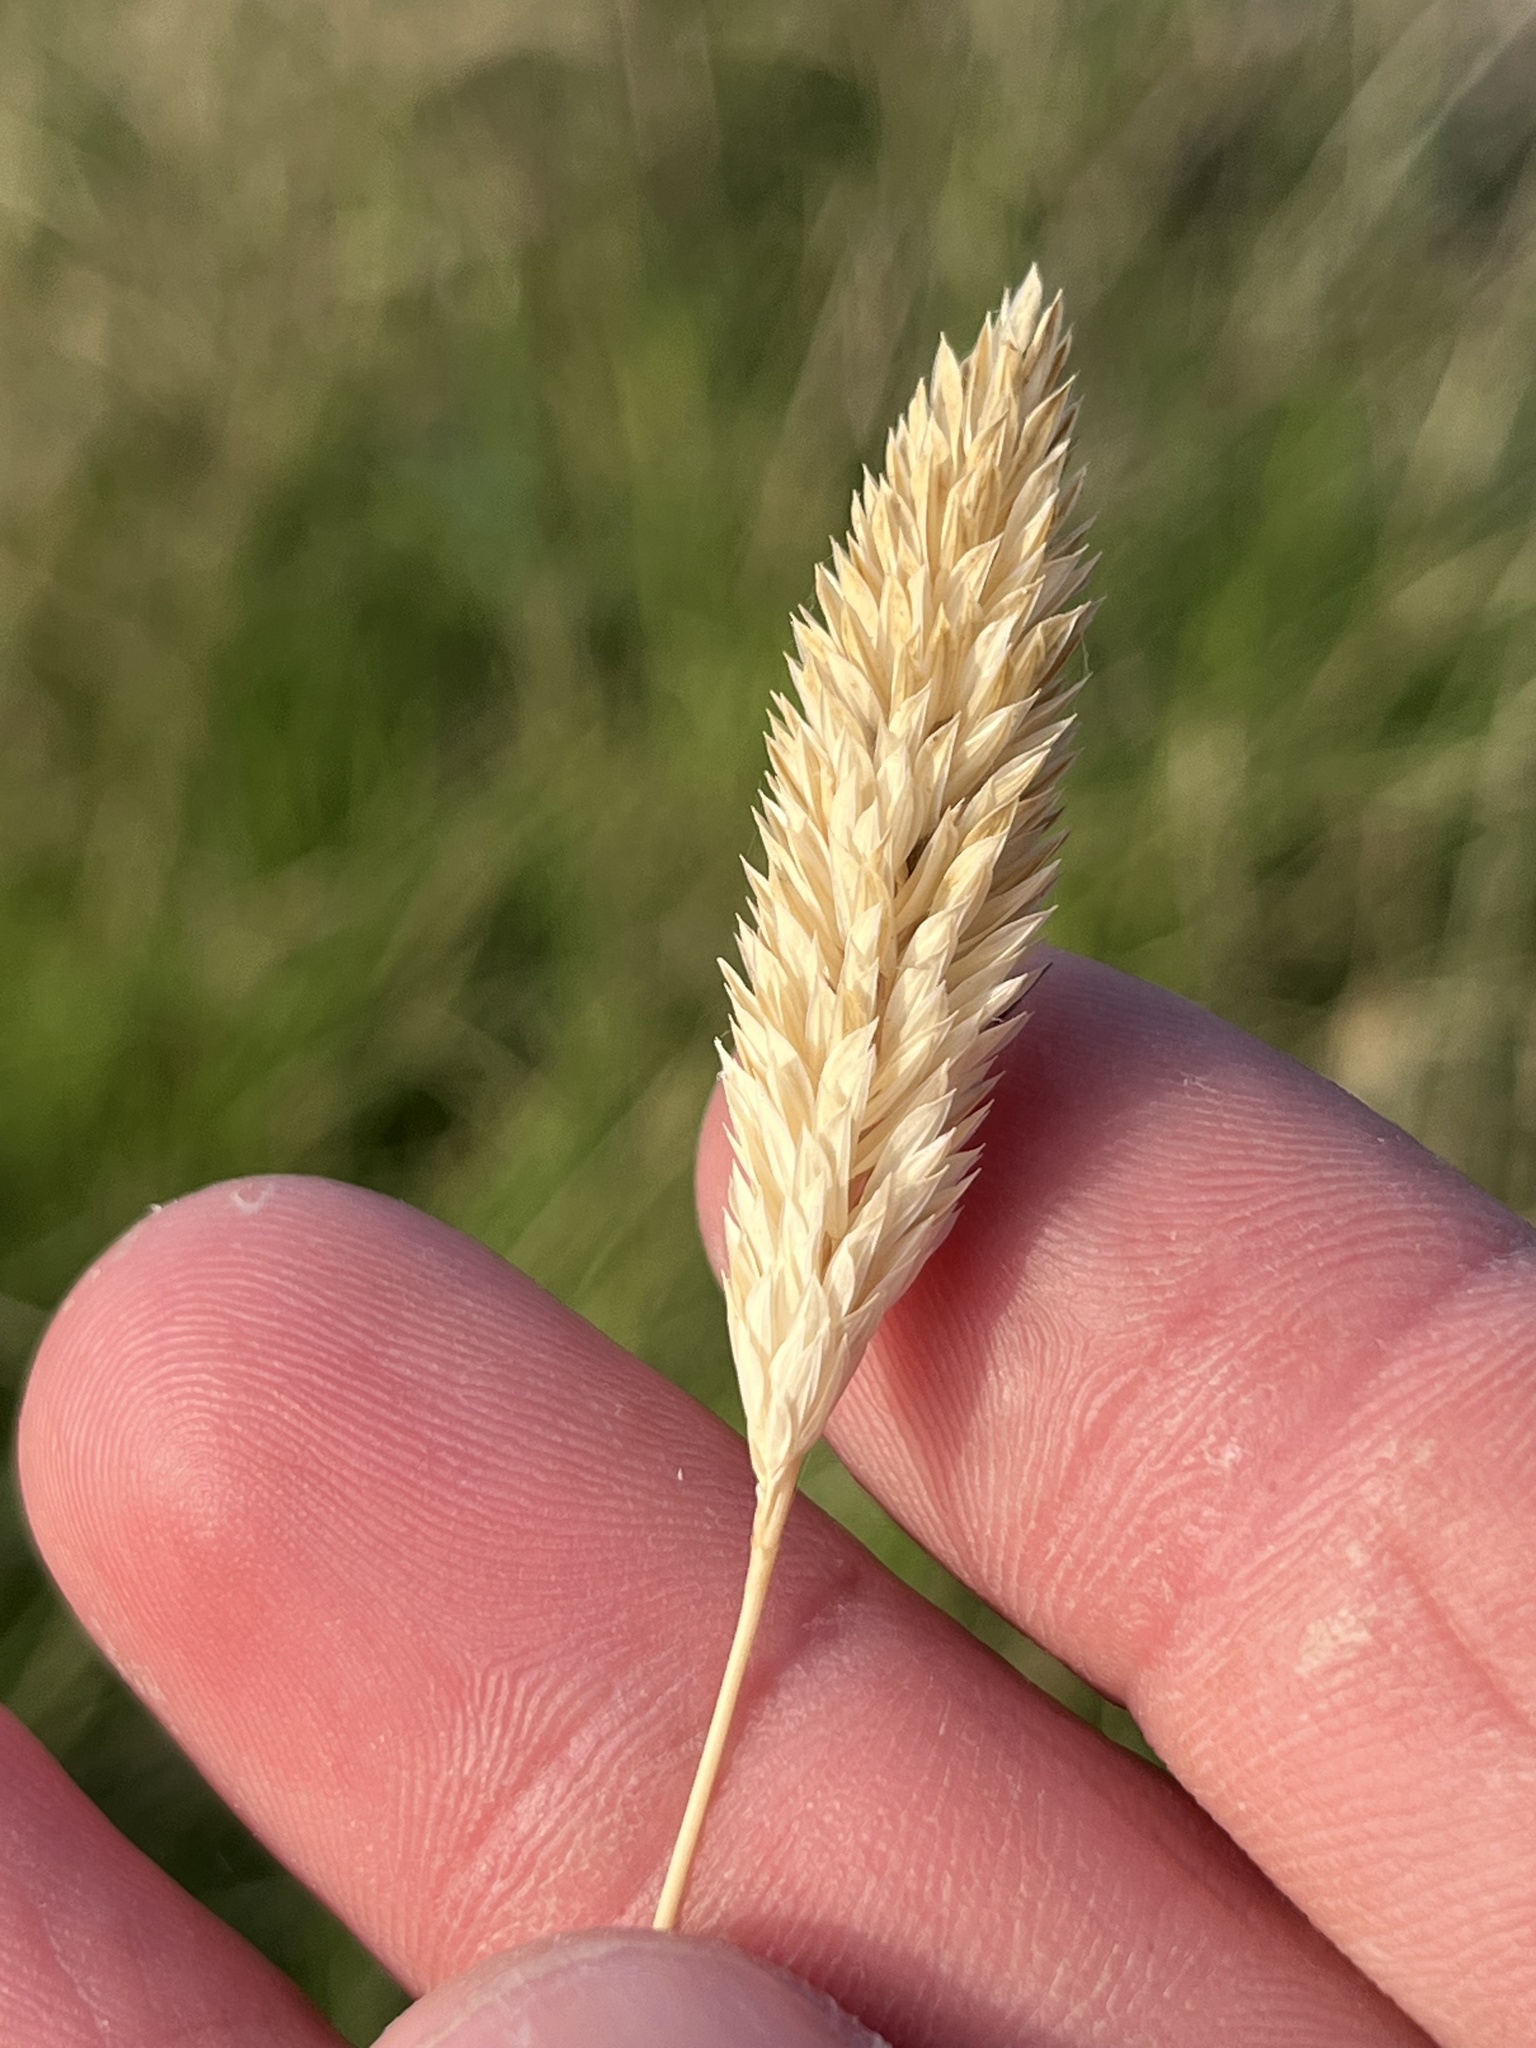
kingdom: Plantae
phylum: Tracheophyta
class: Liliopsida
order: Poales
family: Poaceae
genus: Phalaris
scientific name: Phalaris caroliniana
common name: May grass
